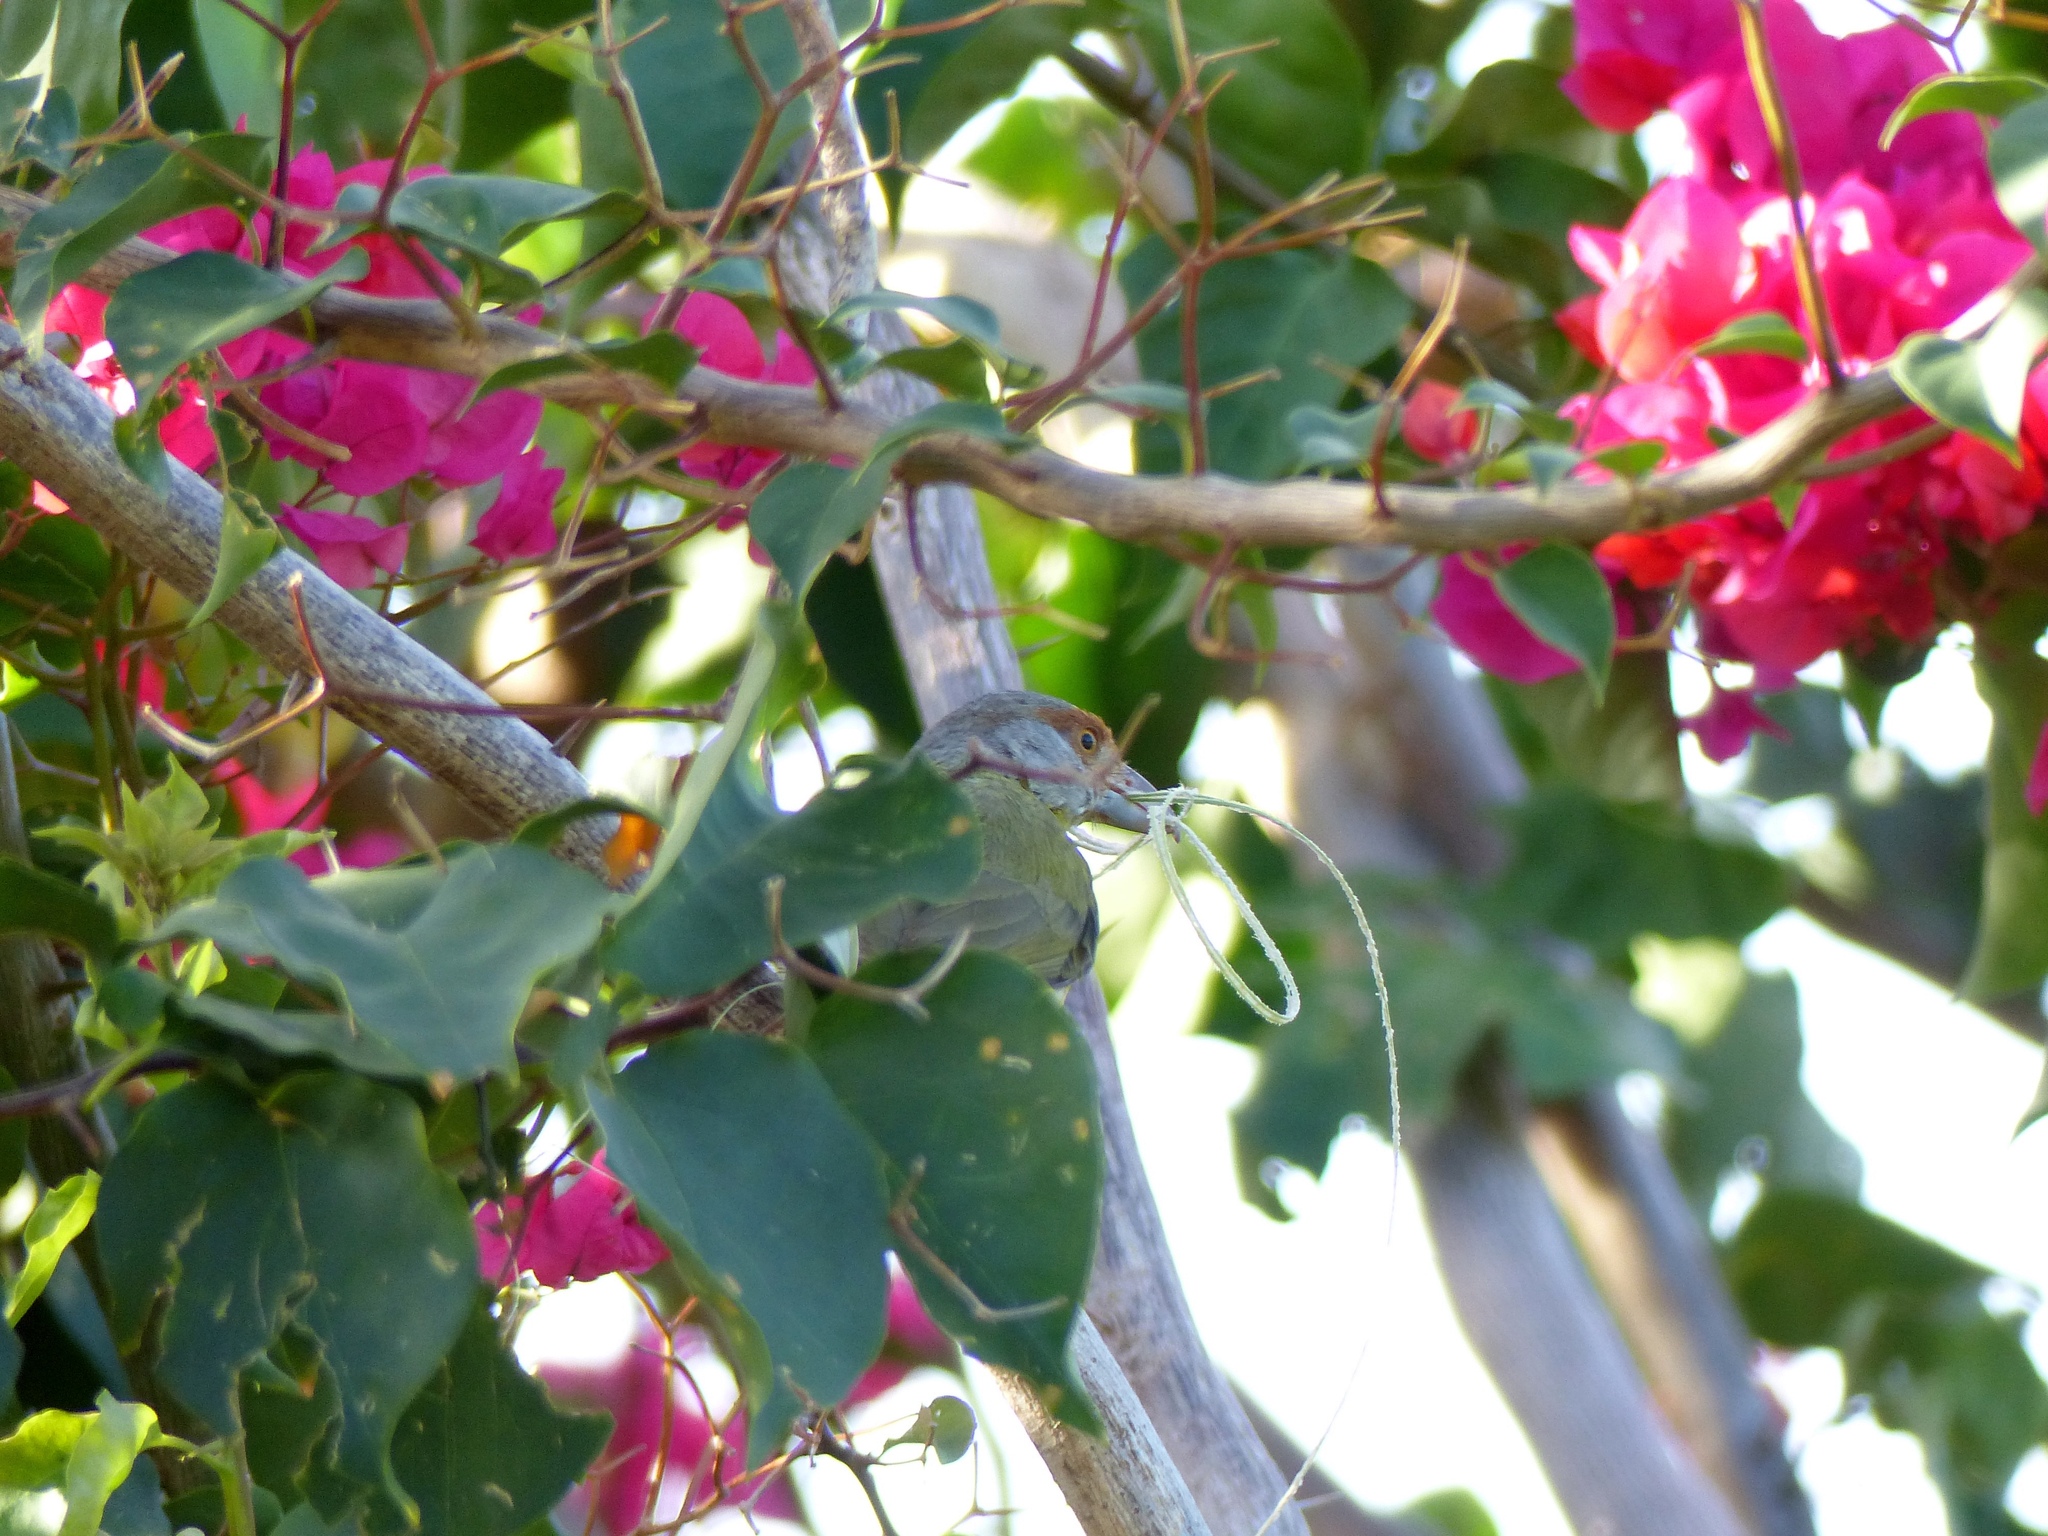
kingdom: Animalia
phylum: Chordata
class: Aves
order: Passeriformes
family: Vireonidae
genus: Cyclarhis
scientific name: Cyclarhis gujanensis
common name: Rufous-browed peppershrike
